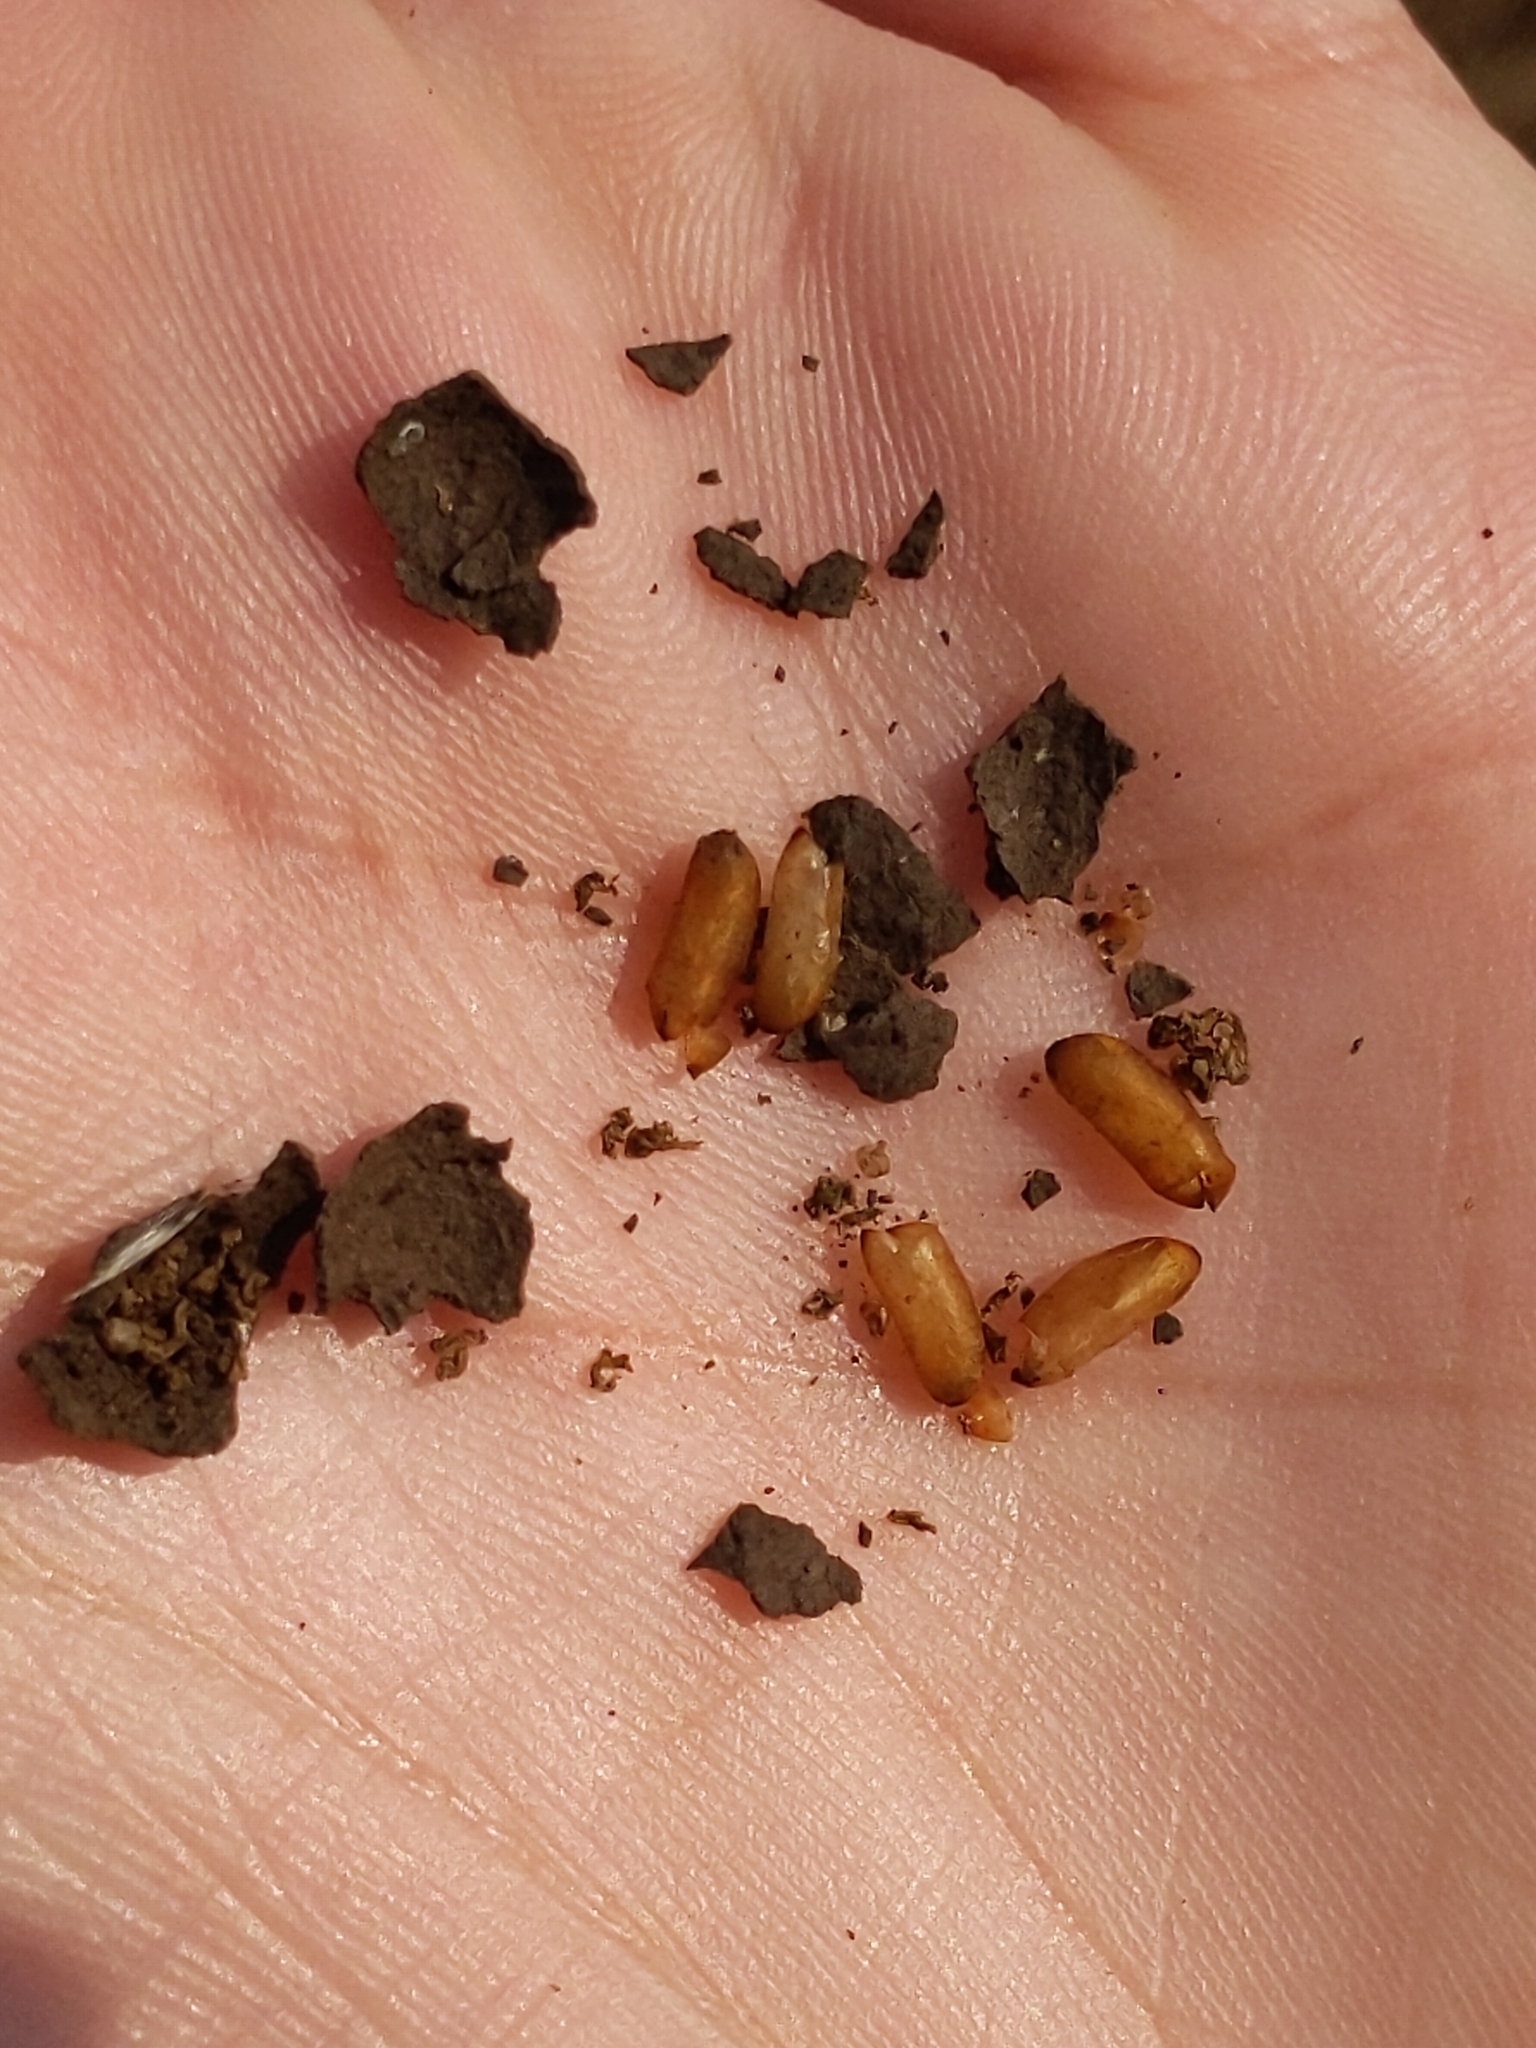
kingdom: Animalia
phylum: Arthropoda
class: Insecta
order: Hymenoptera
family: Vespidae
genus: Eumenes
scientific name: Eumenes
